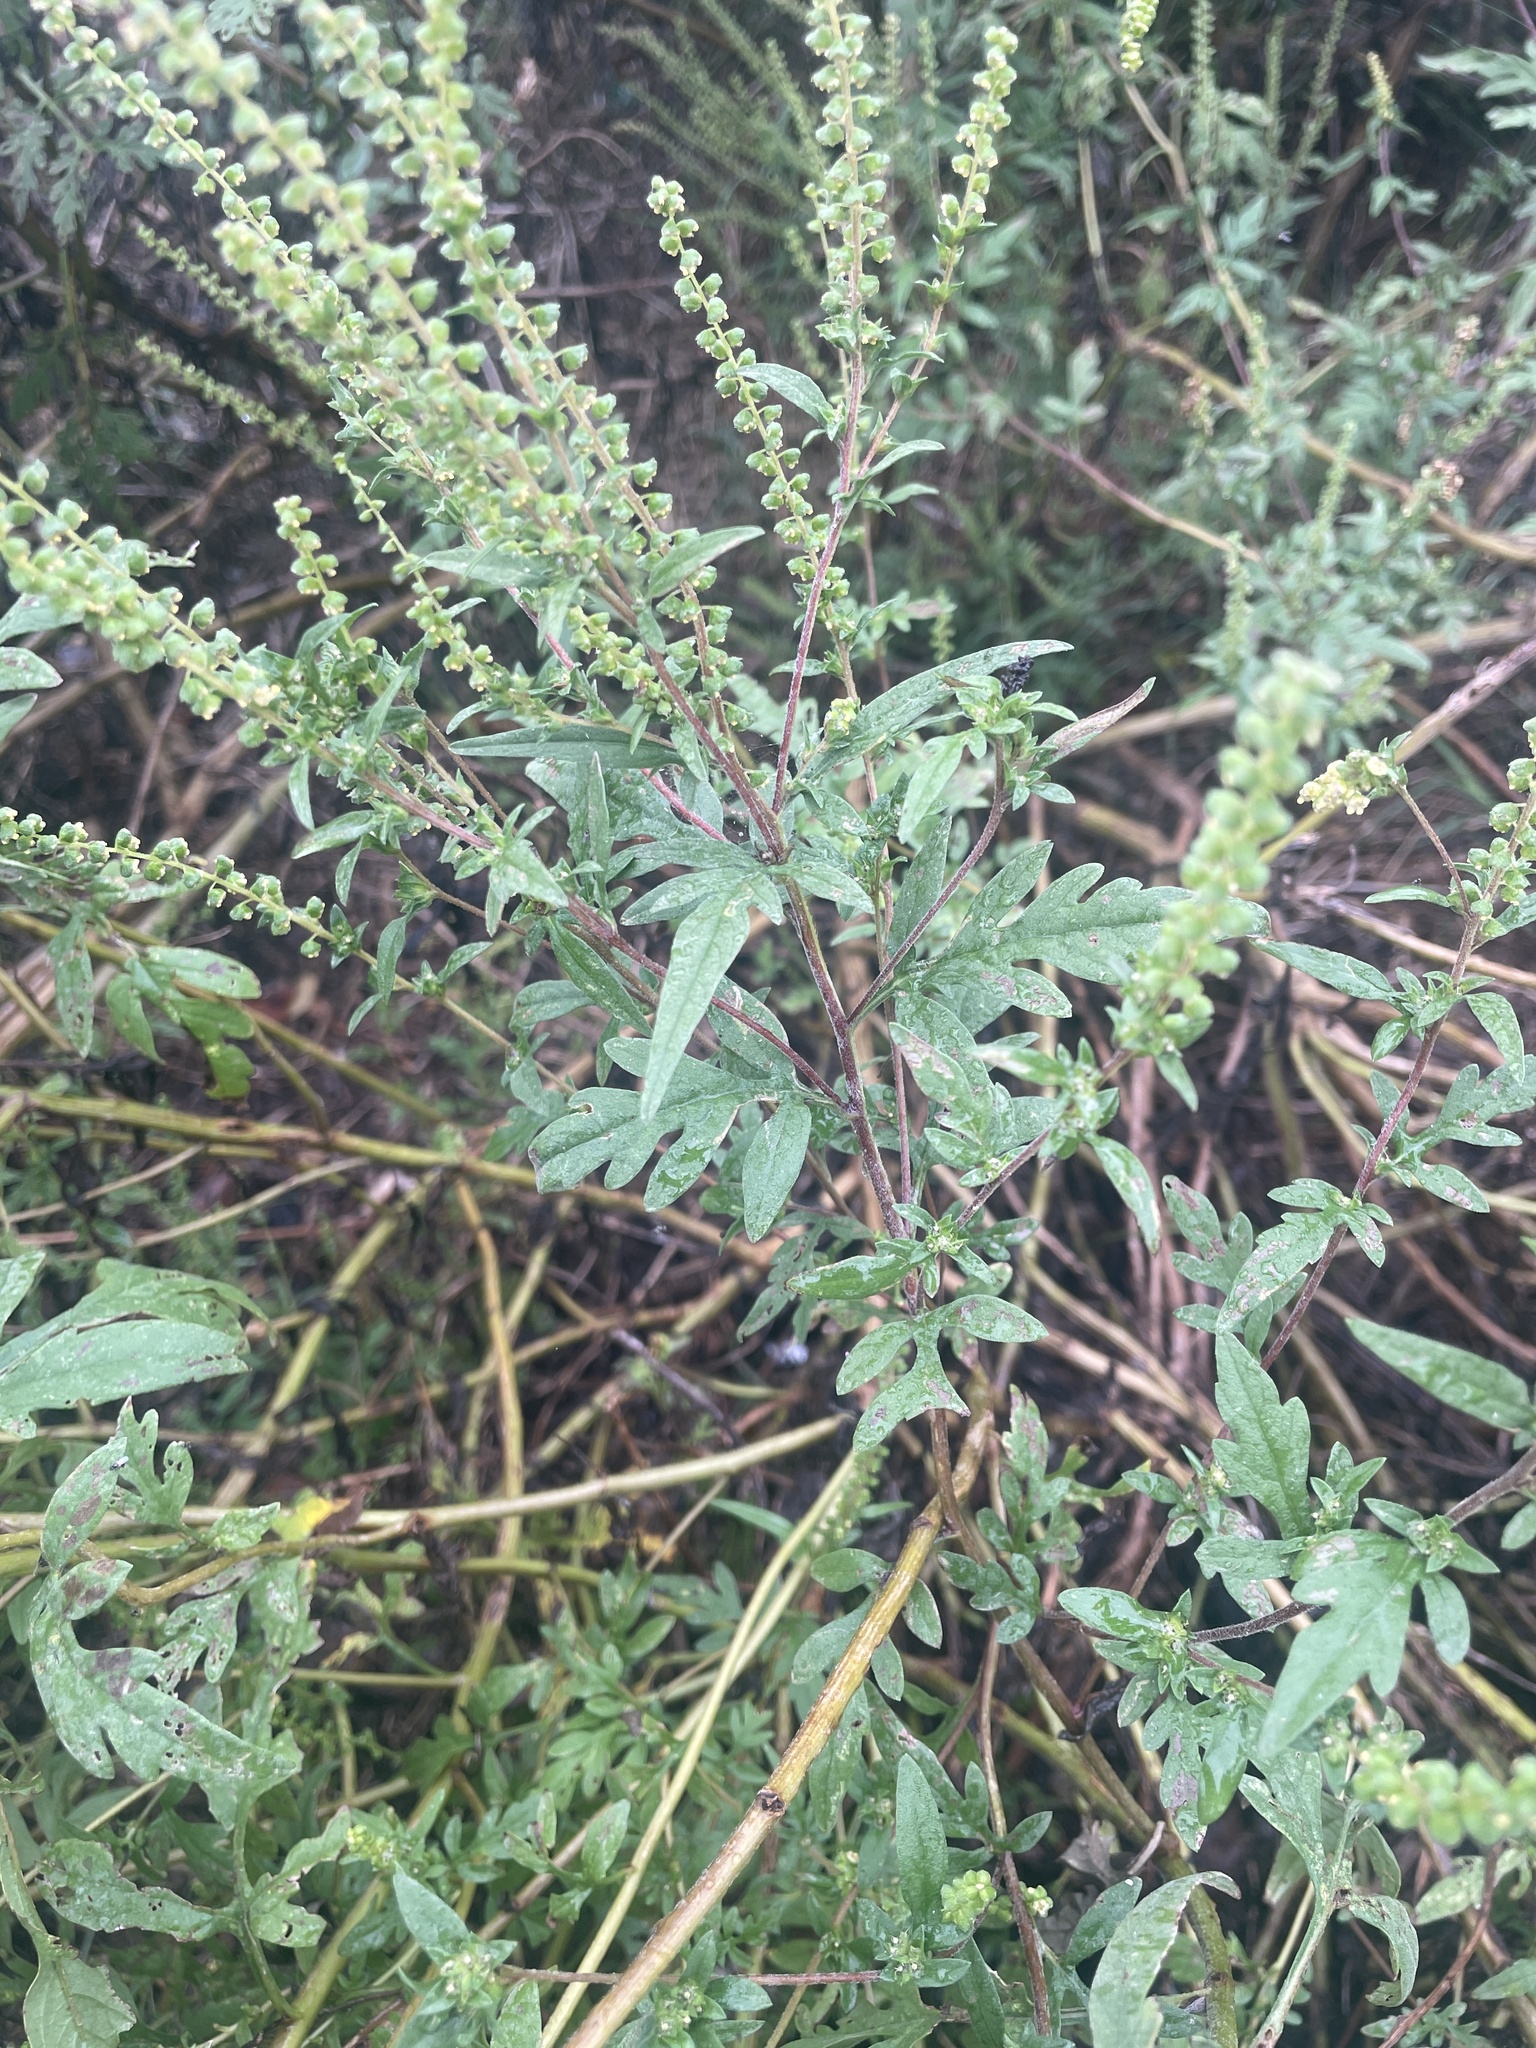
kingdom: Plantae
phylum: Tracheophyta
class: Magnoliopsida
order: Asterales
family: Asteraceae
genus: Ambrosia
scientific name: Ambrosia artemisiifolia
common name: Annual ragweed
